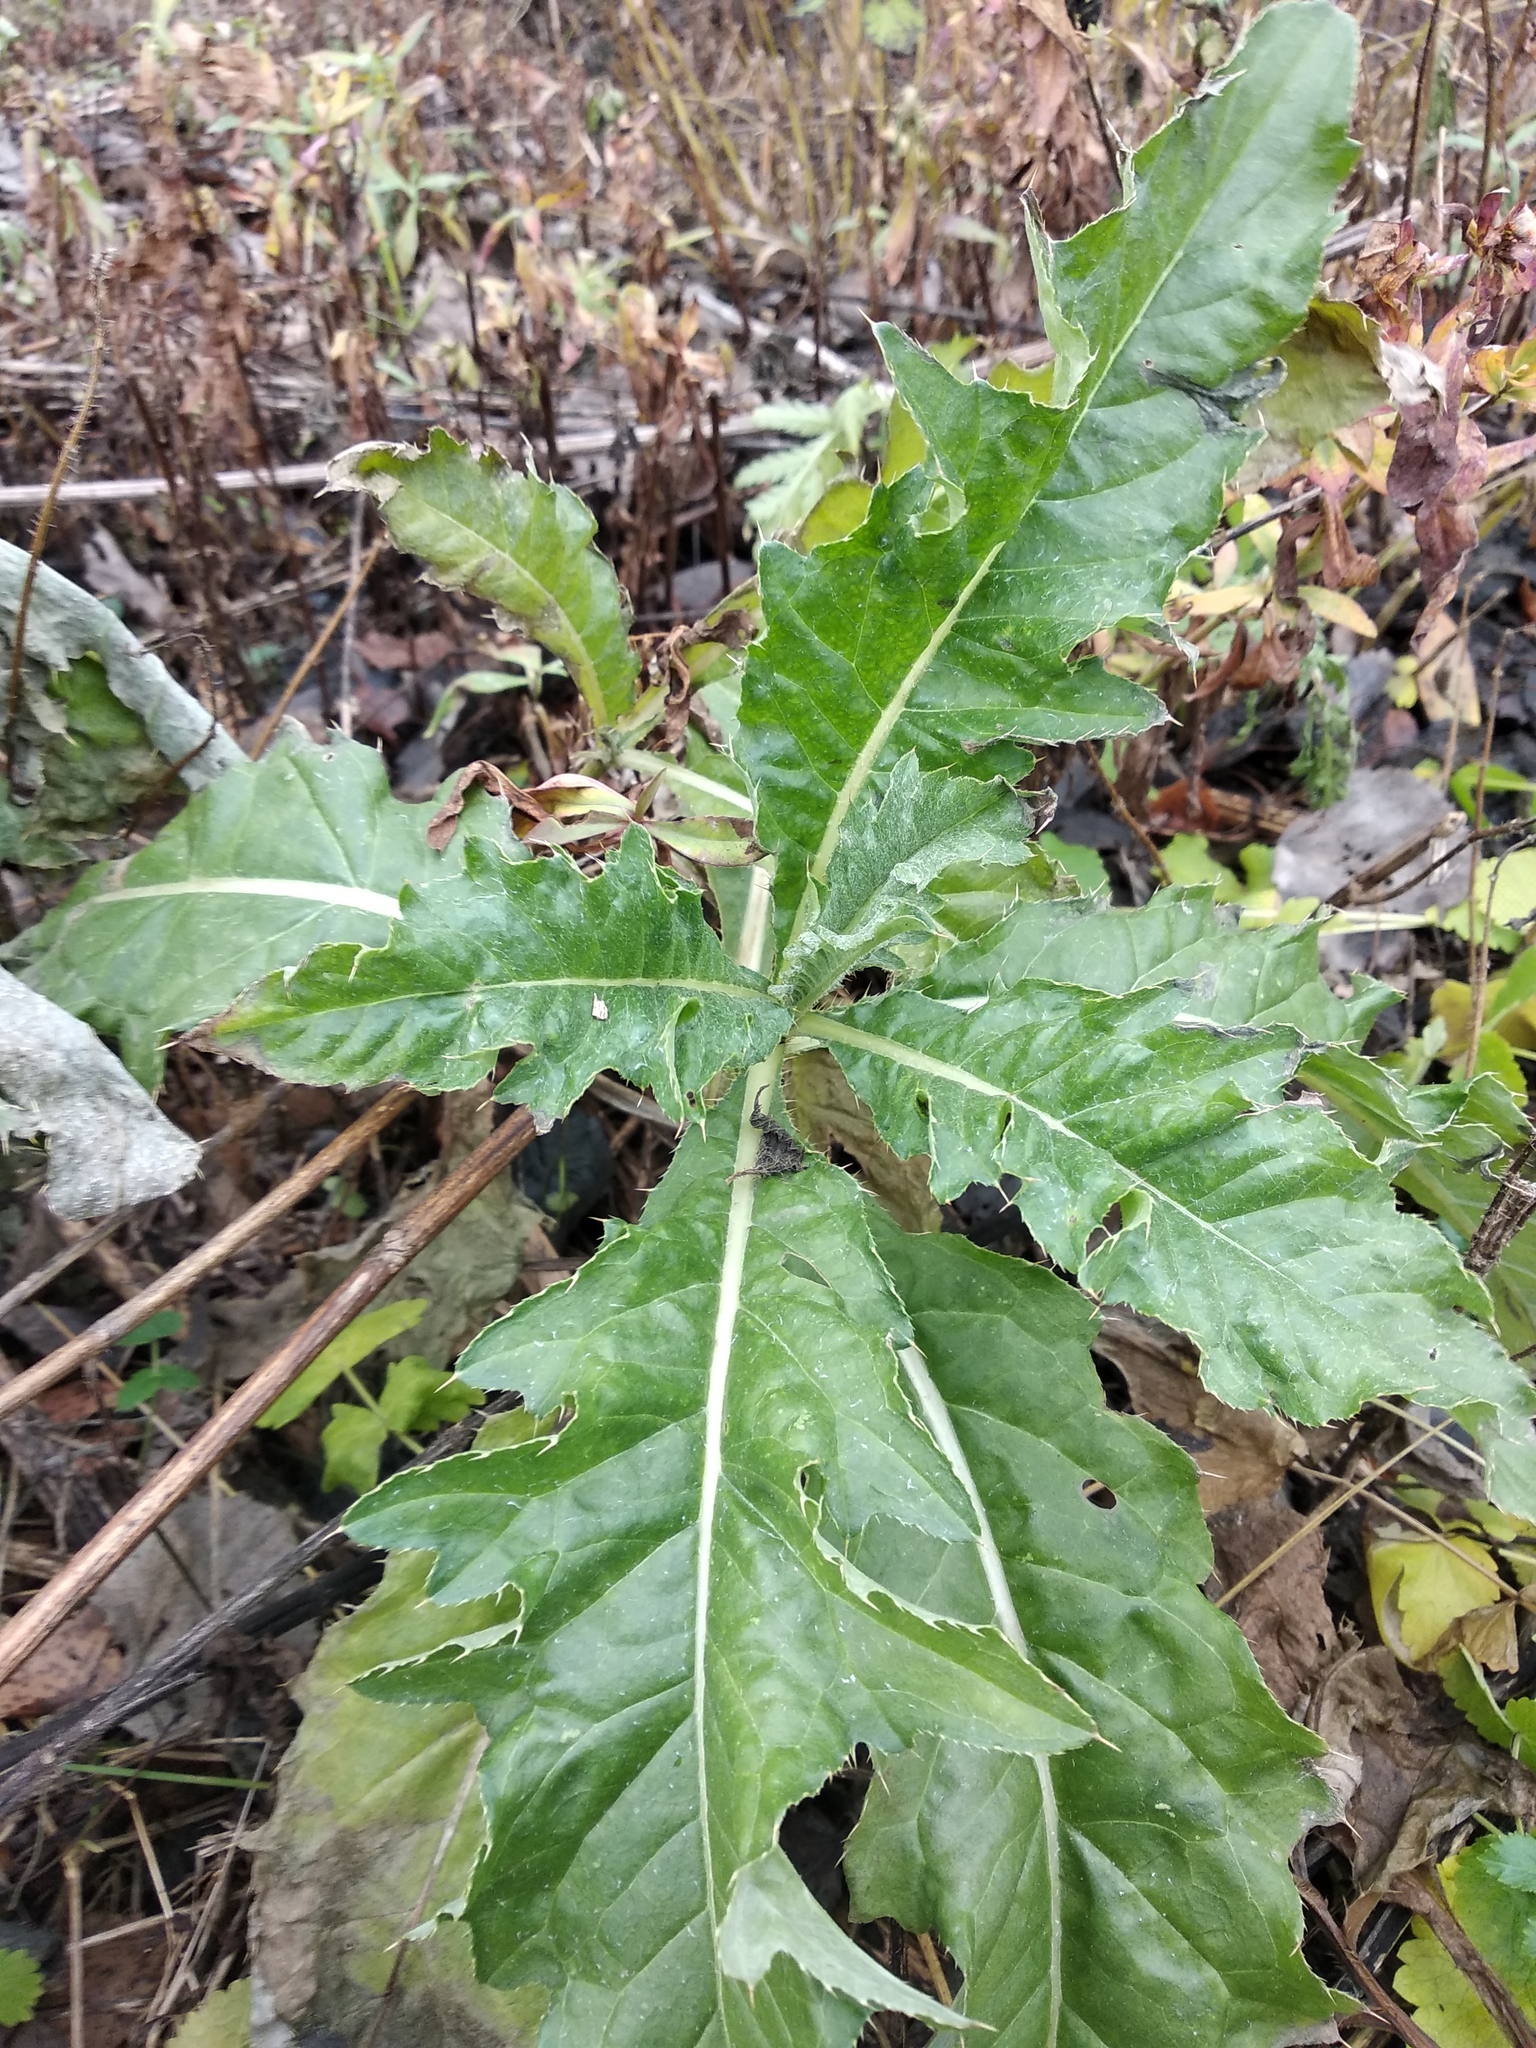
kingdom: Plantae
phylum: Tracheophyta
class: Magnoliopsida
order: Asterales
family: Asteraceae
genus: Cirsium
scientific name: Cirsium arvense
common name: Creeping thistle
